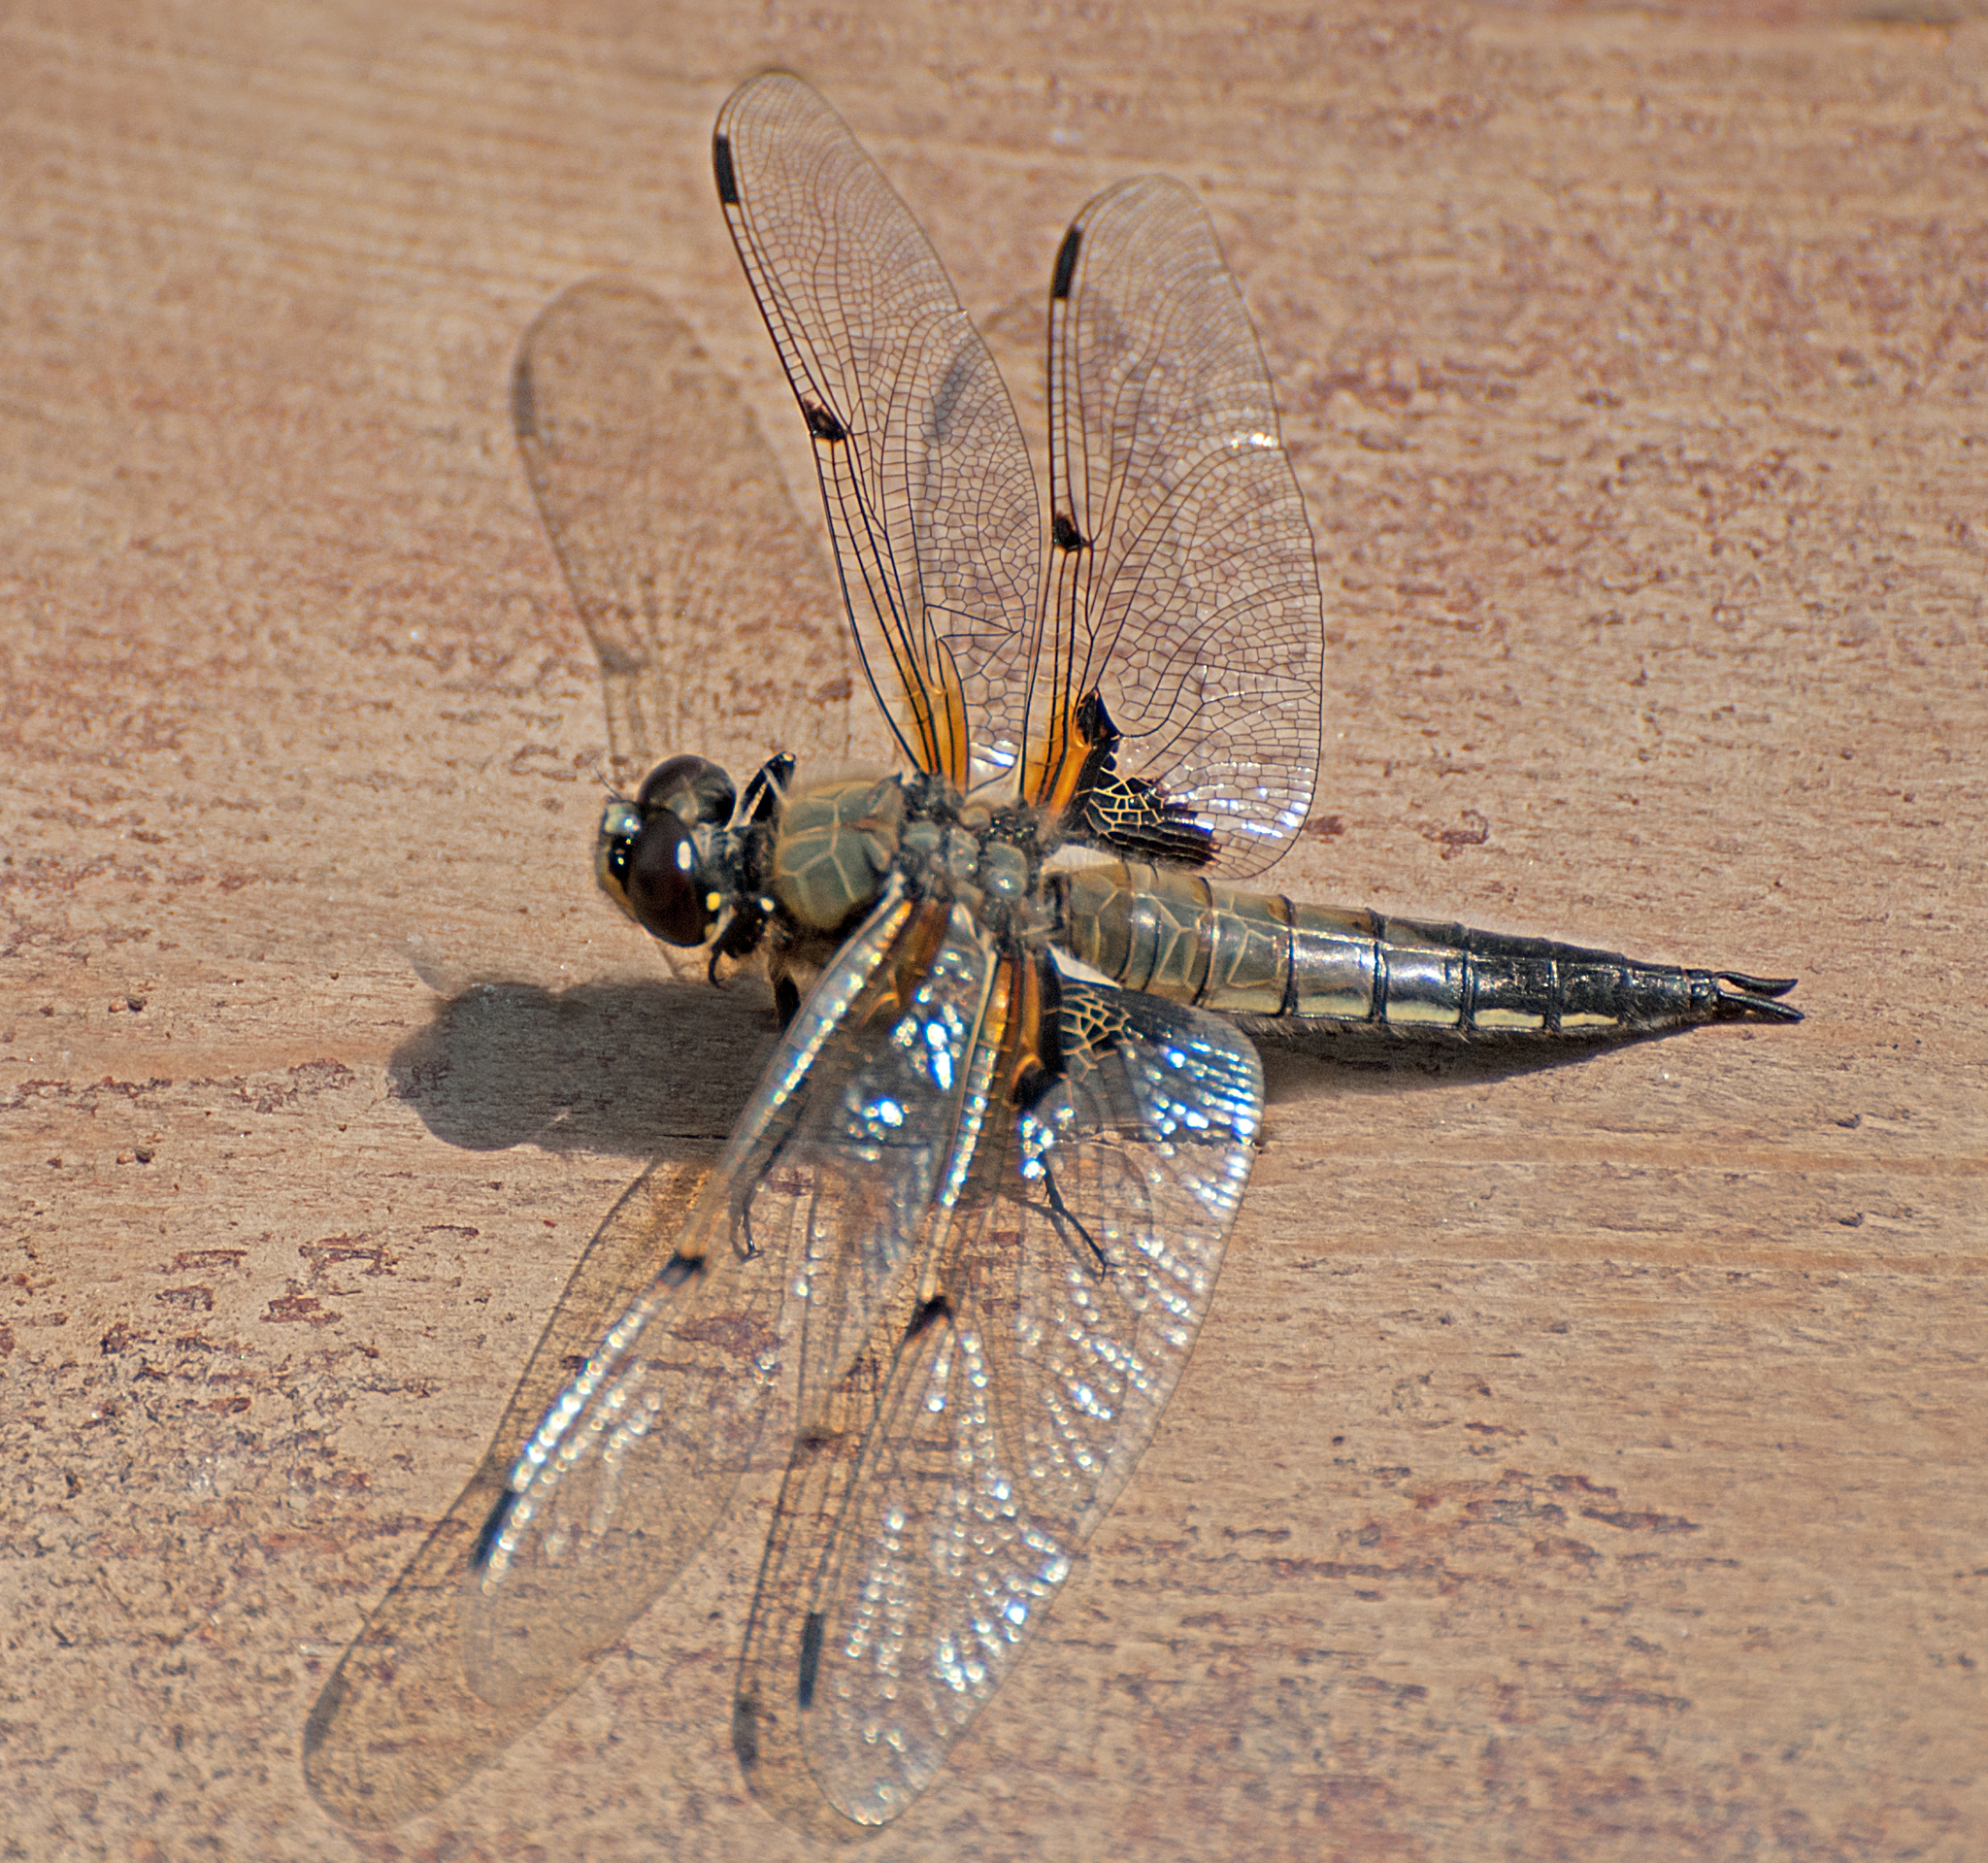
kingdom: Animalia
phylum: Arthropoda
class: Insecta
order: Odonata
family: Libellulidae
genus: Libellula
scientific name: Libellula quadrimaculata
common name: Four-spotted chaser
